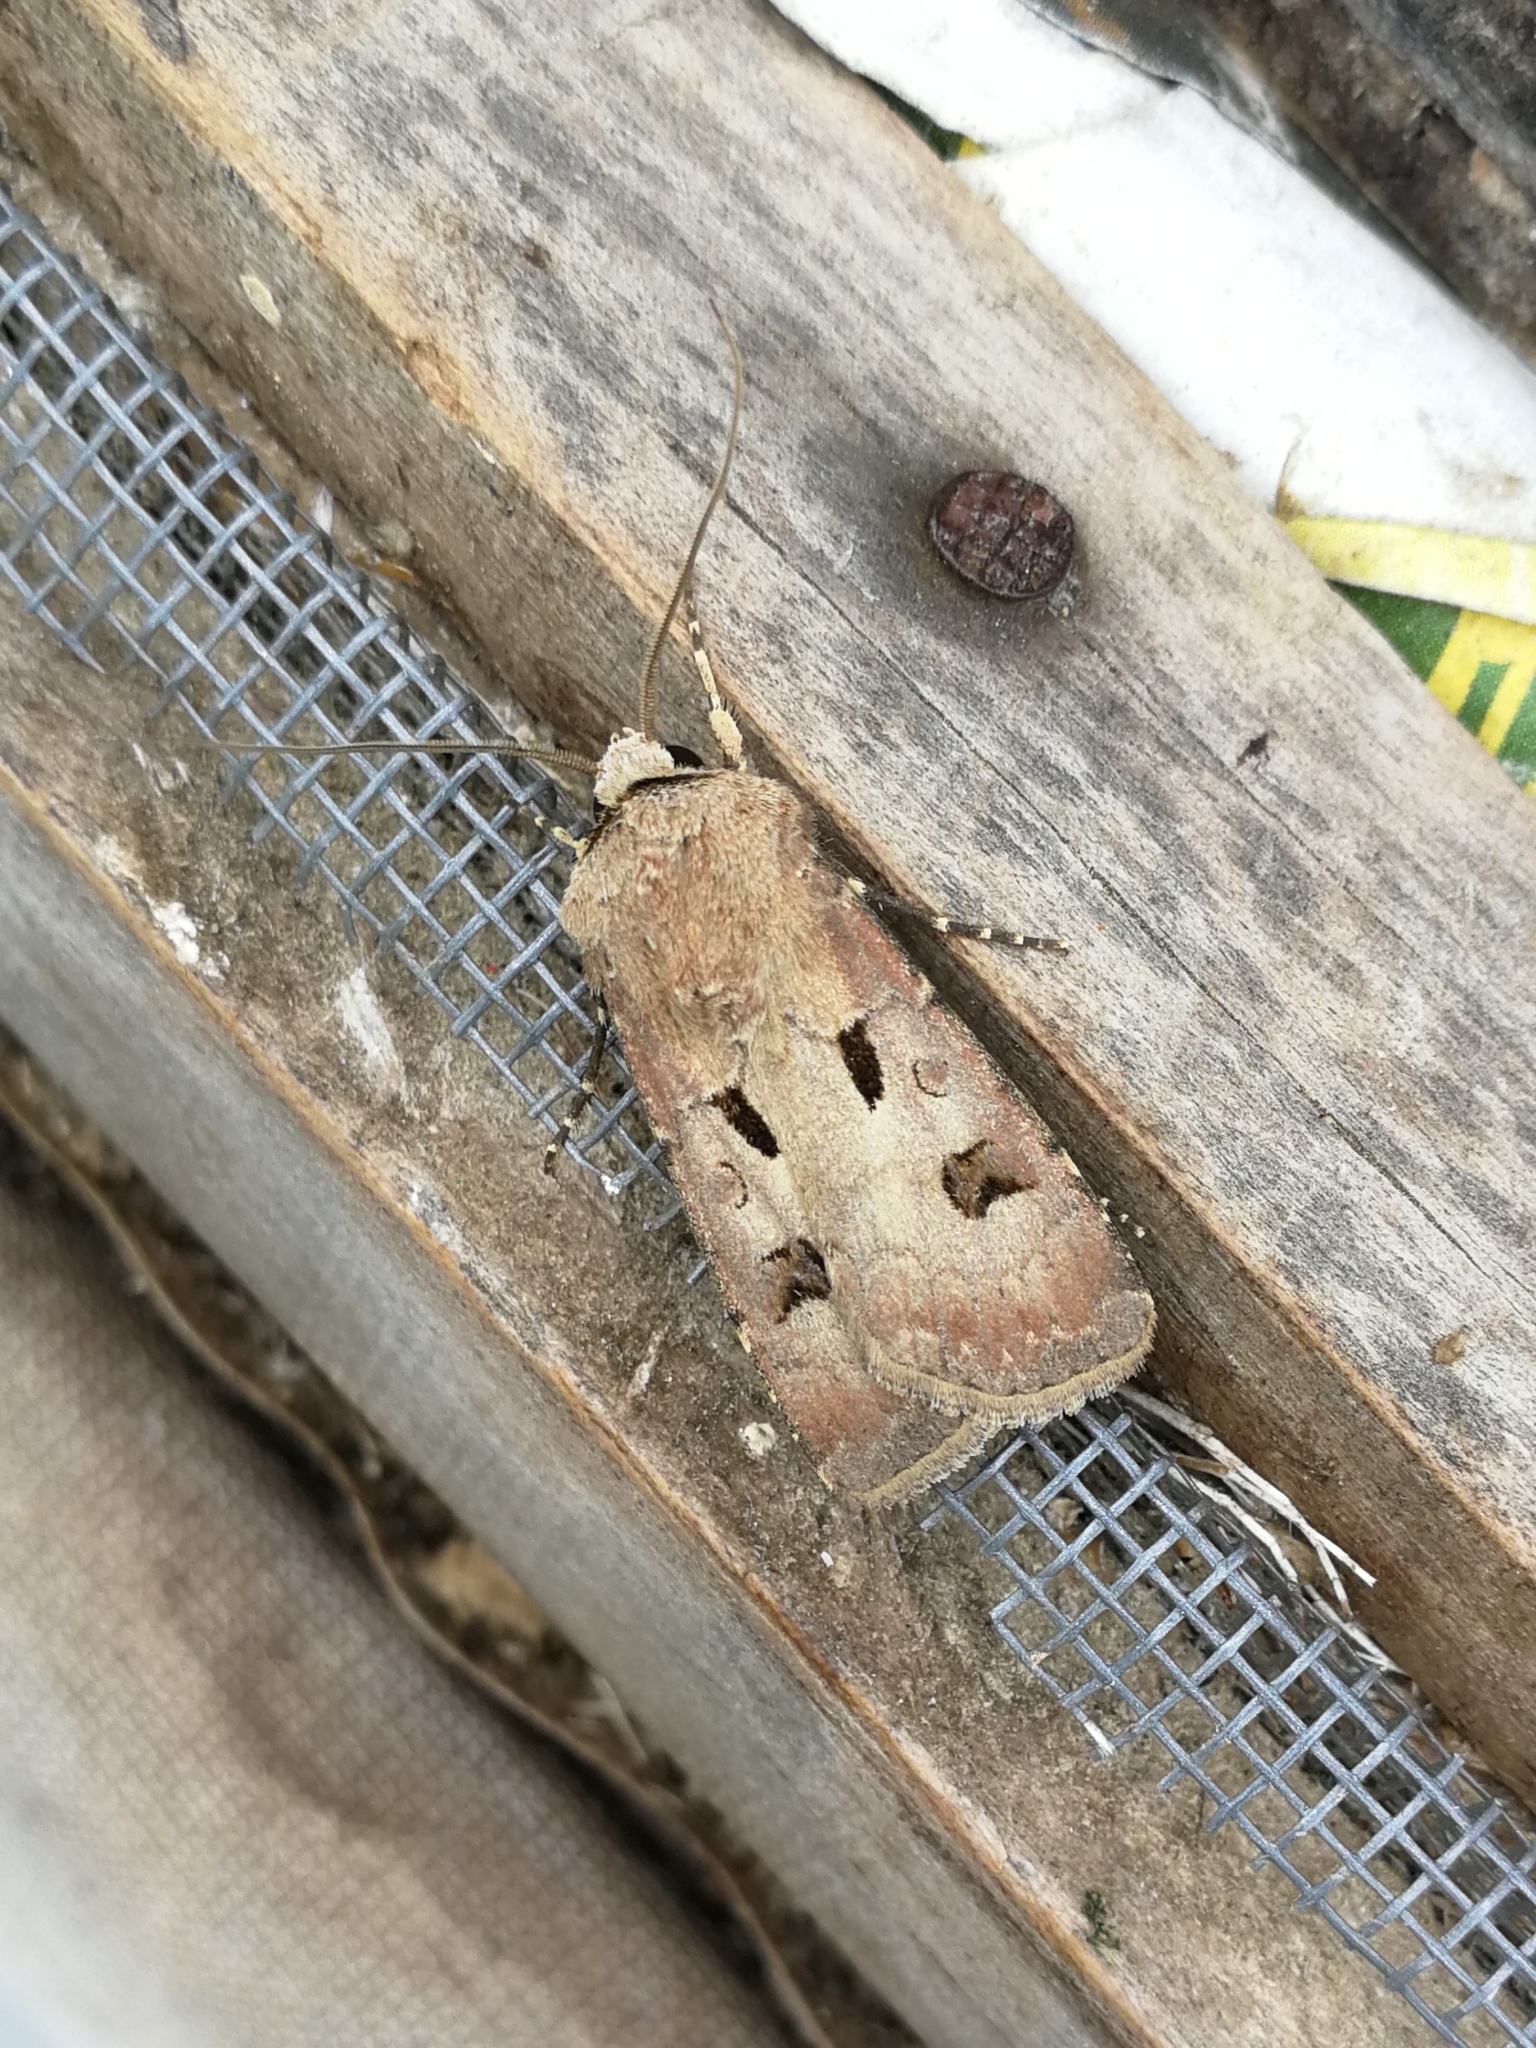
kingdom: Animalia
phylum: Arthropoda
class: Insecta
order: Lepidoptera
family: Noctuidae
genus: Agrotis
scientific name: Agrotis exclamationis
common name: Heart and dart
